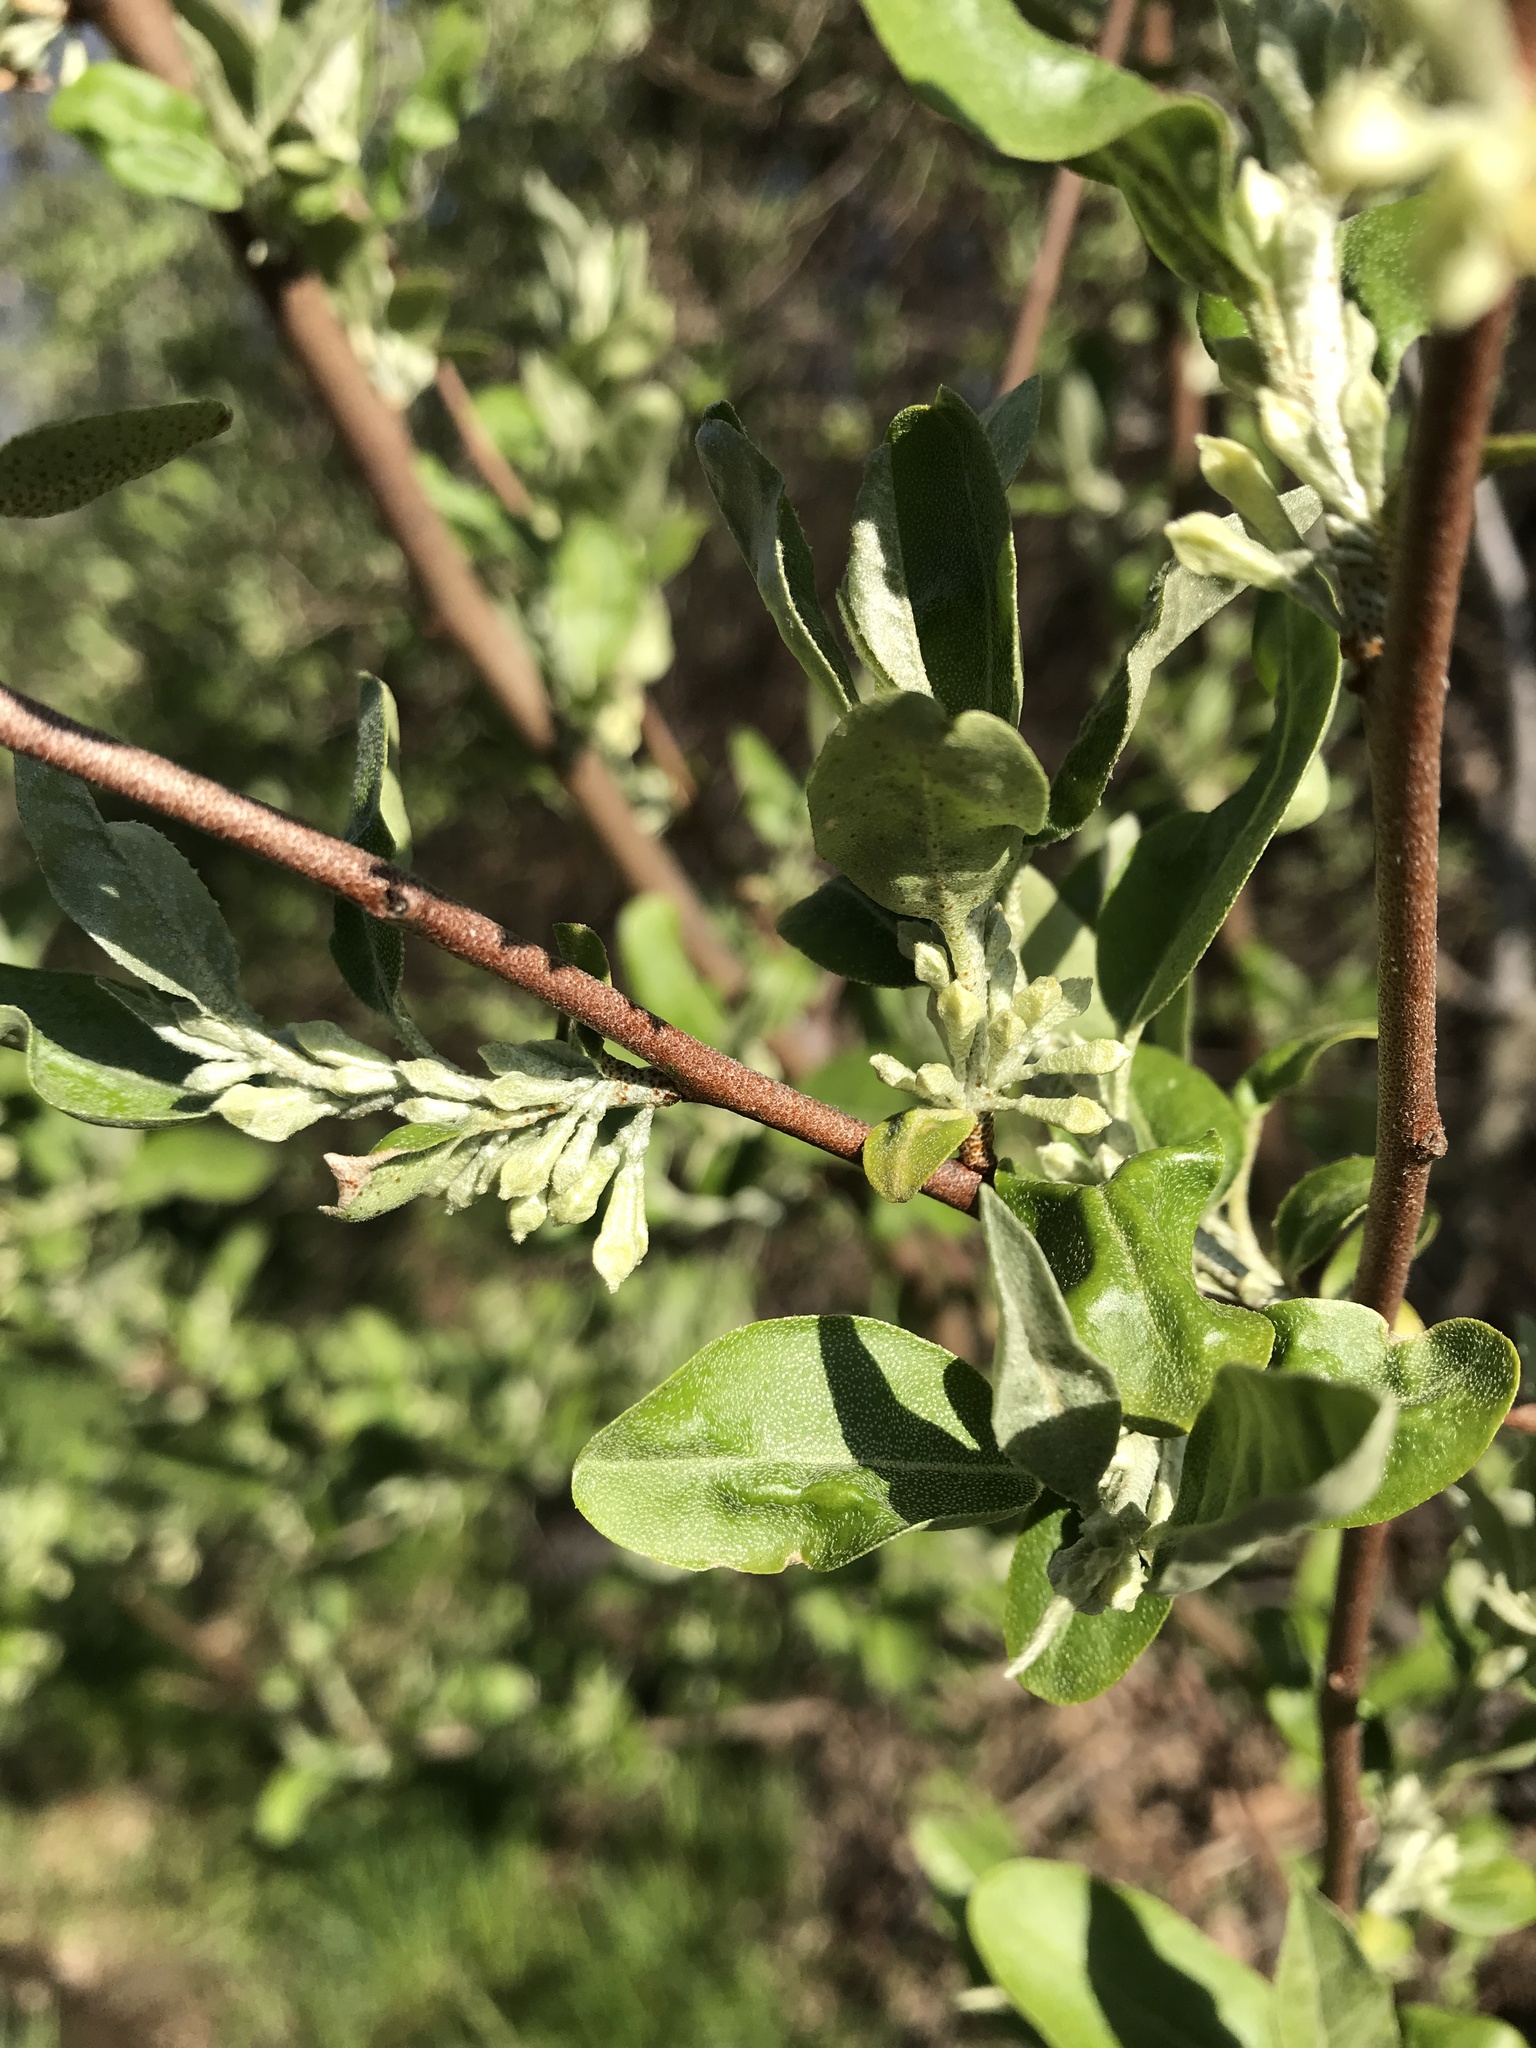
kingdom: Plantae
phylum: Tracheophyta
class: Magnoliopsida
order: Rosales
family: Elaeagnaceae
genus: Elaeagnus
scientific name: Elaeagnus umbellata
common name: Autumn olive
